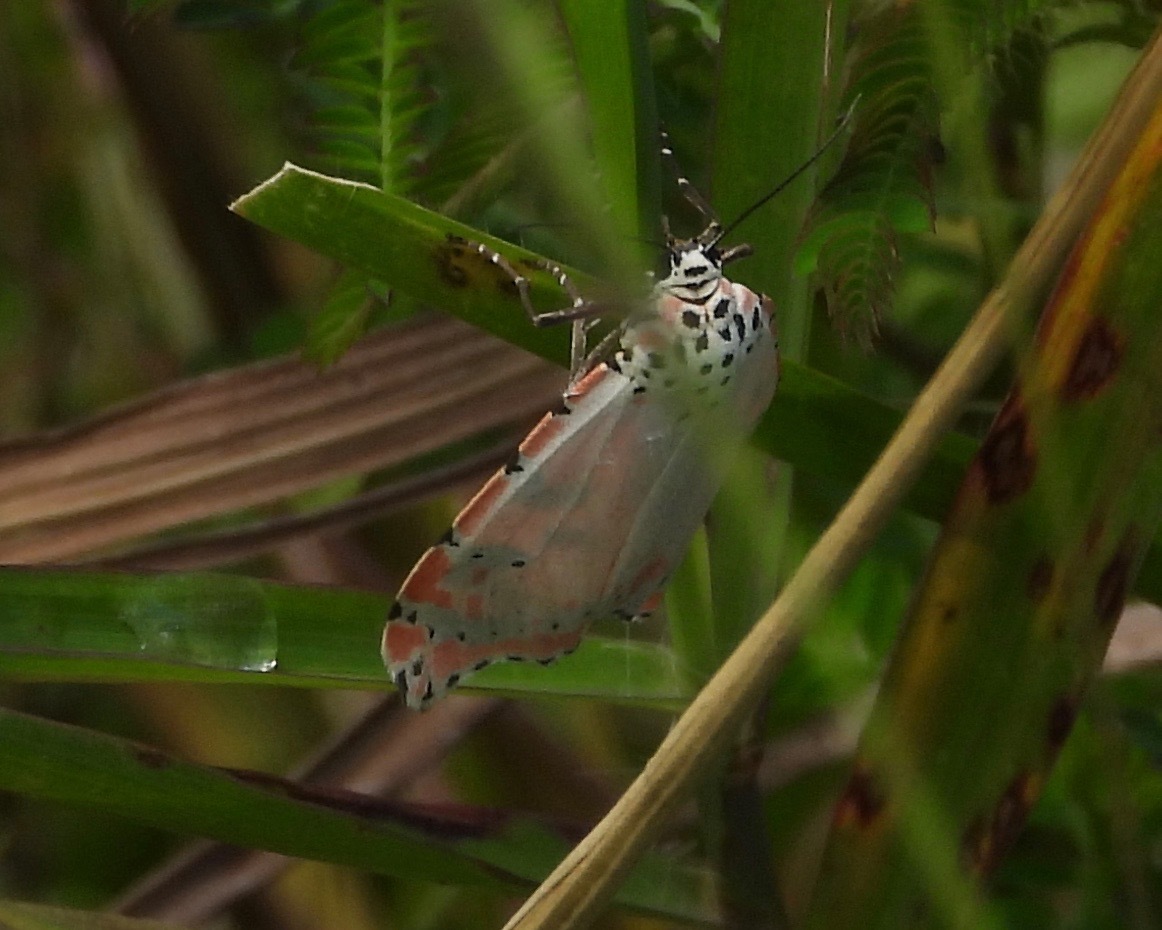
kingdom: Animalia
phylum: Arthropoda
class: Insecta
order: Lepidoptera
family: Erebidae
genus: Utetheisa
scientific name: Utetheisa ornatrix
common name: Beautiful utetheisa
